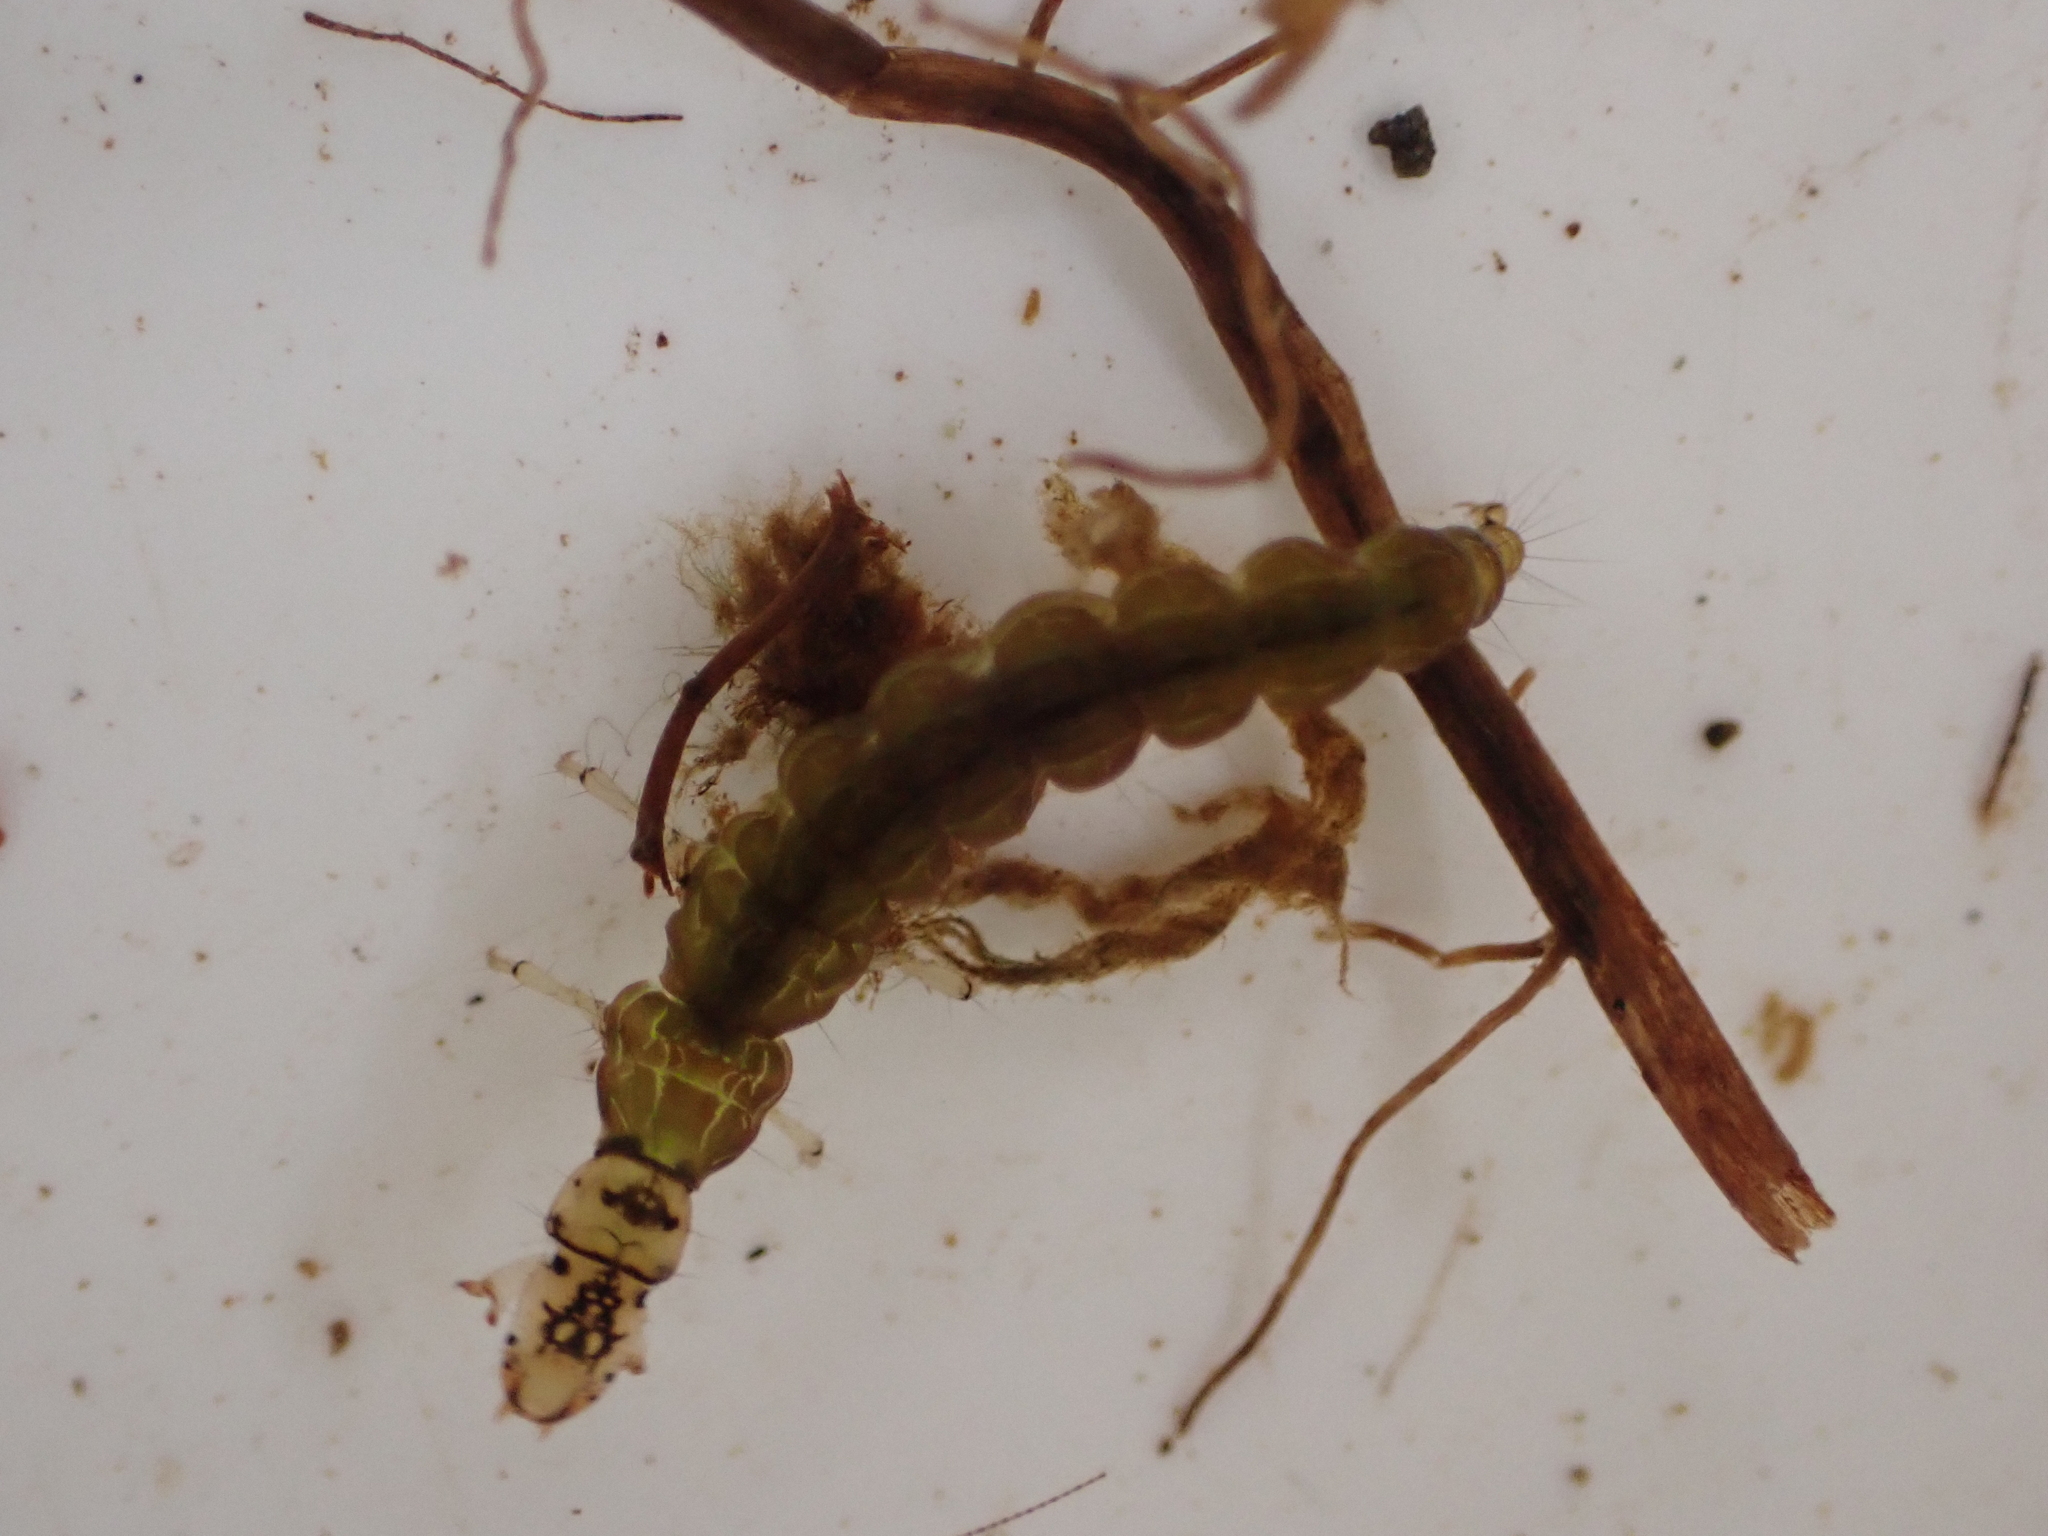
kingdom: Animalia
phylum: Arthropoda
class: Insecta
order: Trichoptera
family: Hydrobiosidae
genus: Hydrobiosis
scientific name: Hydrobiosis copis
